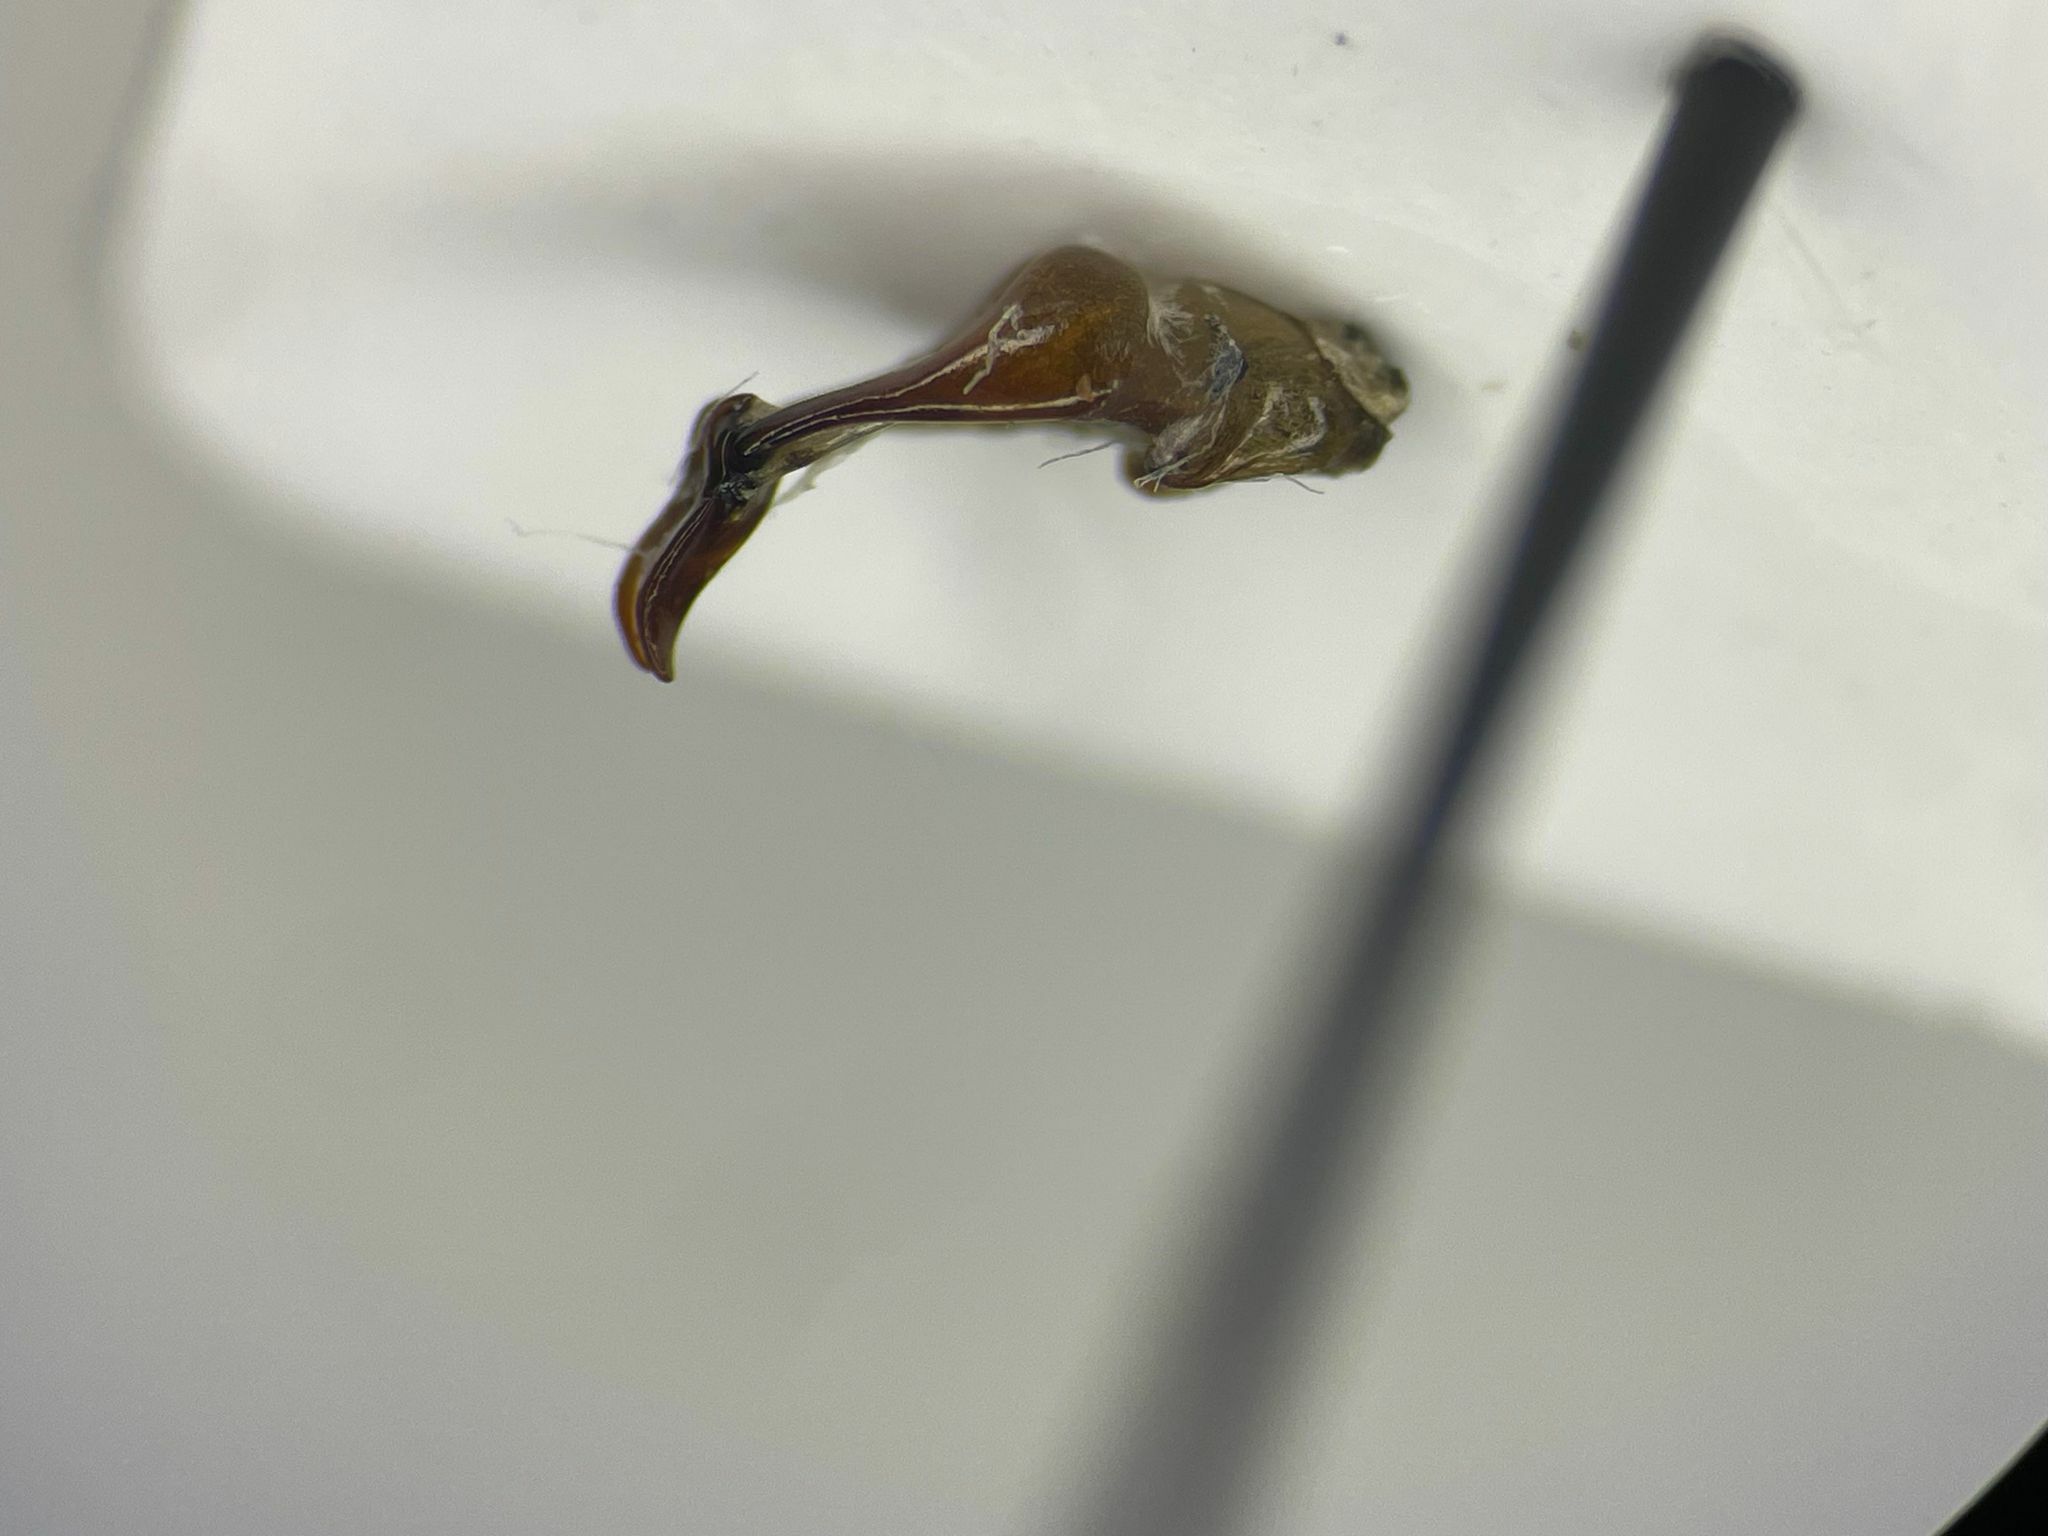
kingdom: Animalia
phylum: Arthropoda
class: Insecta
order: Coleoptera
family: Scarabaeidae
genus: Serica
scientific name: Serica sericea
